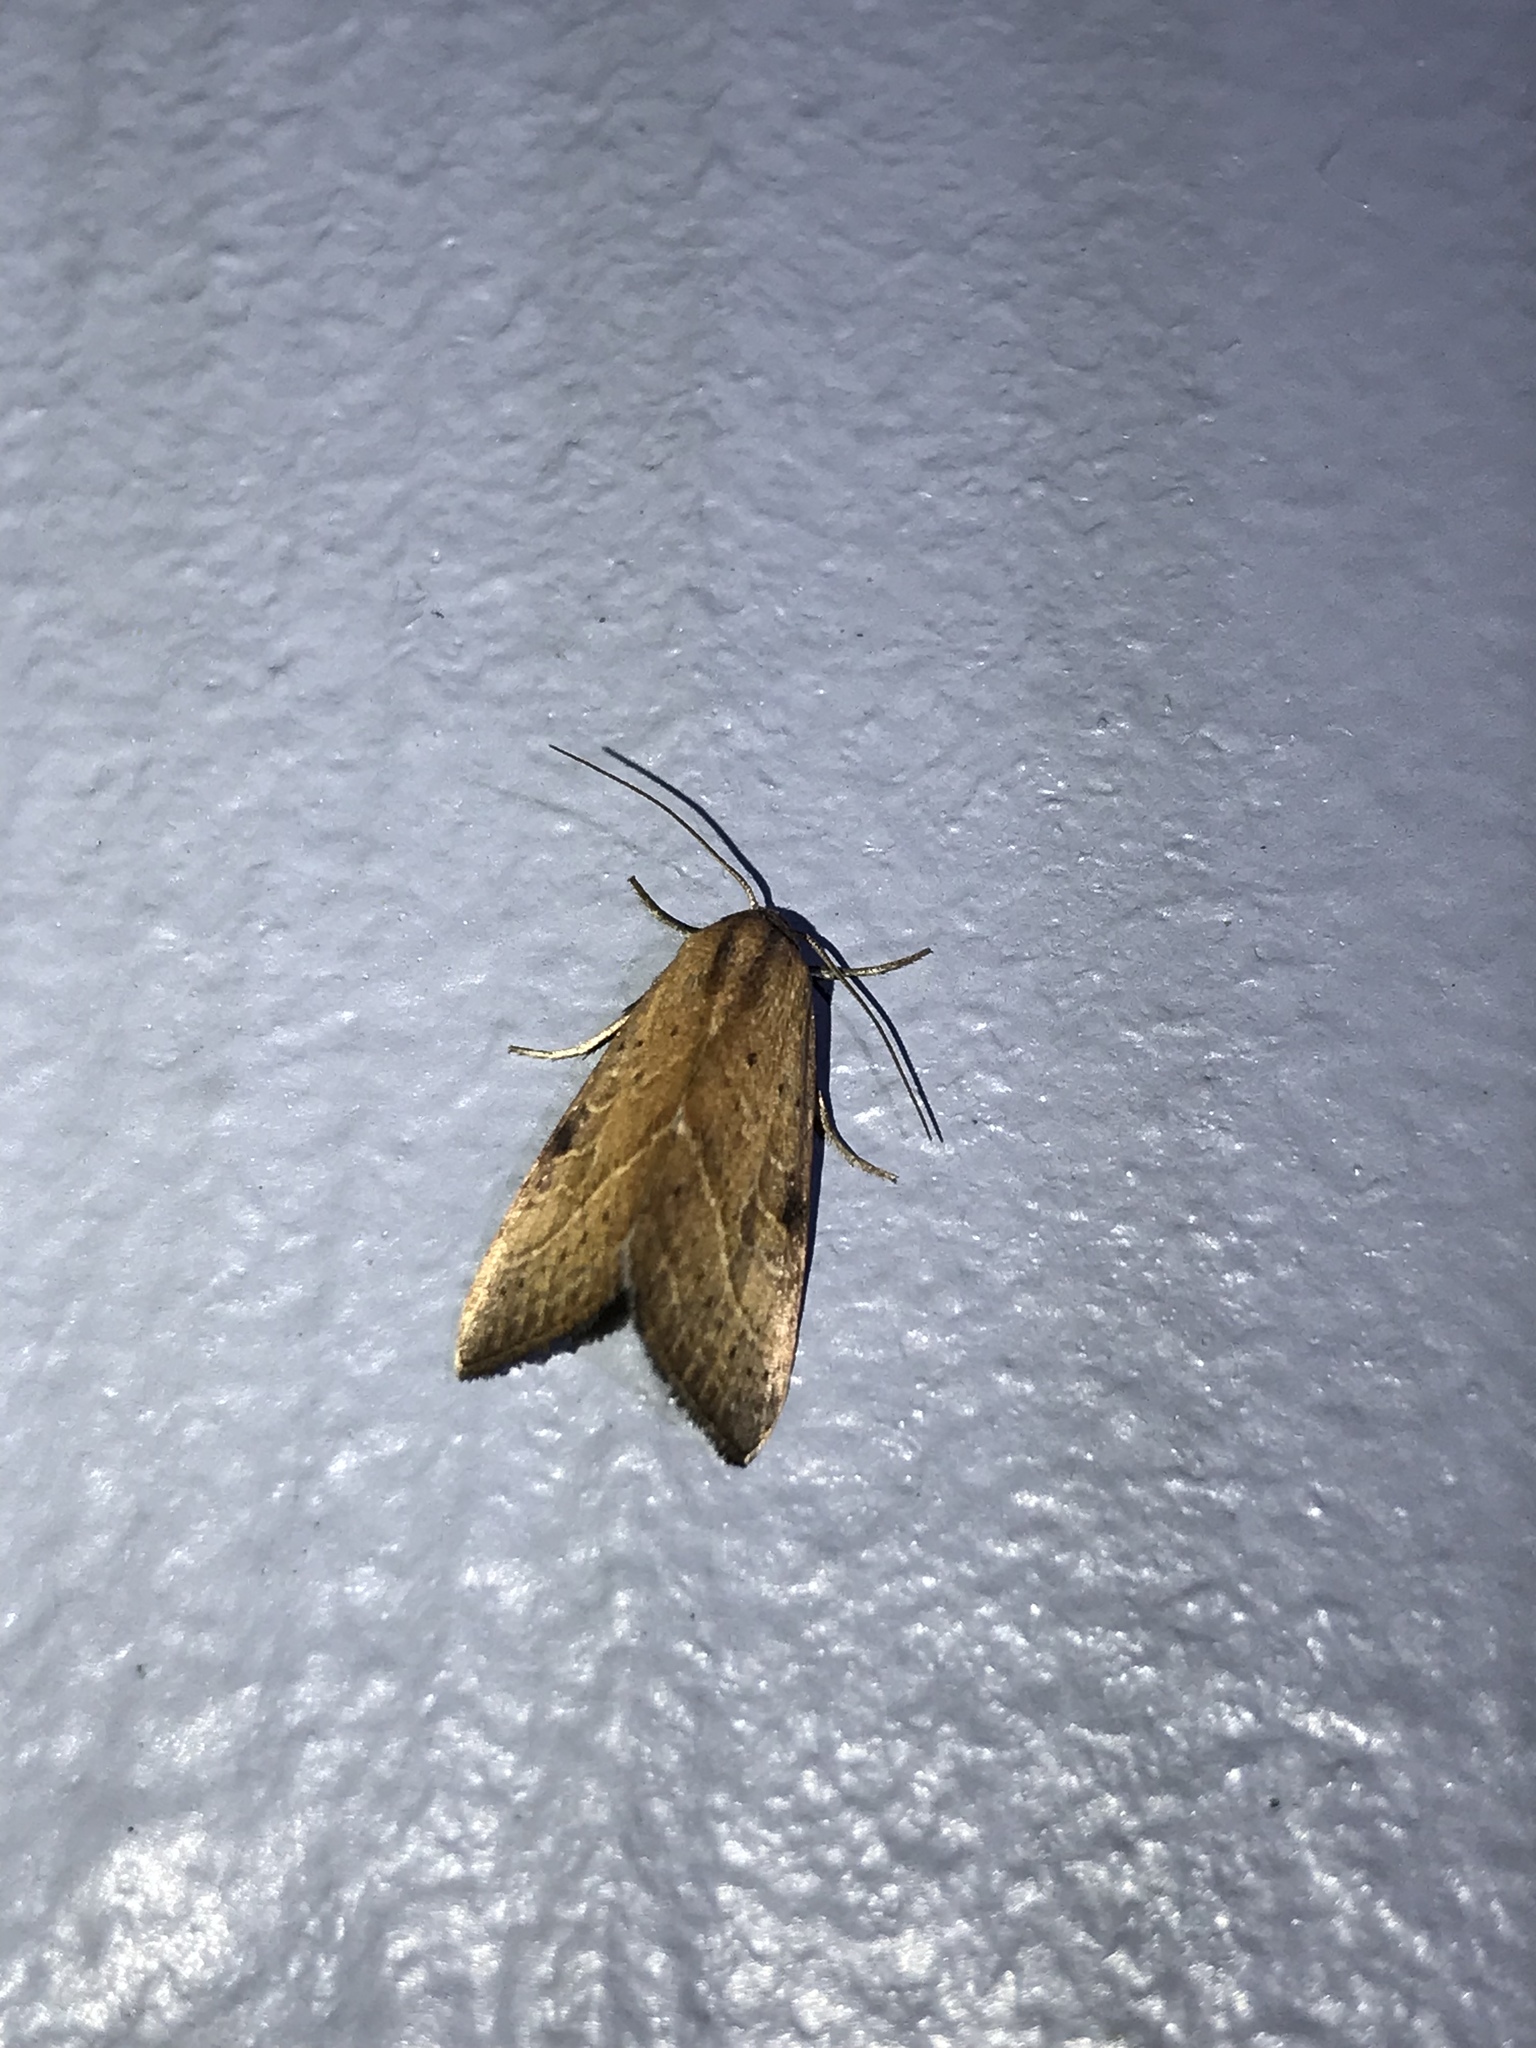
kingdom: Animalia
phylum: Arthropoda
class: Insecta
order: Lepidoptera
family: Noctuidae
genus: Galgula
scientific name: Galgula partita
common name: Wedgeling
